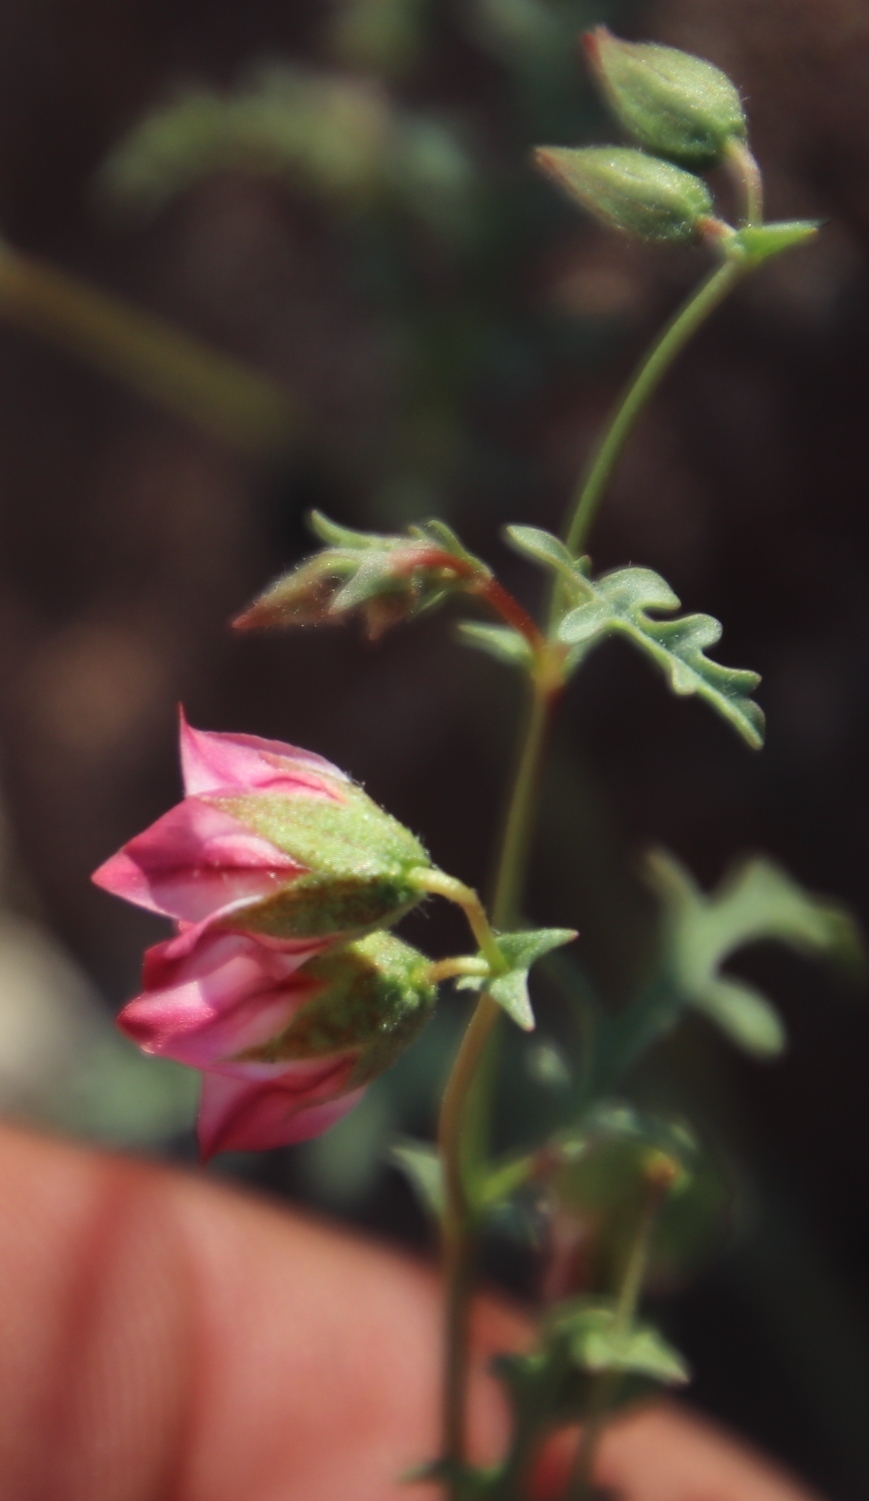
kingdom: Plantae
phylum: Tracheophyta
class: Magnoliopsida
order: Malvales
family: Malvaceae
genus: Hermannia
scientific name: Hermannia grandiflora
